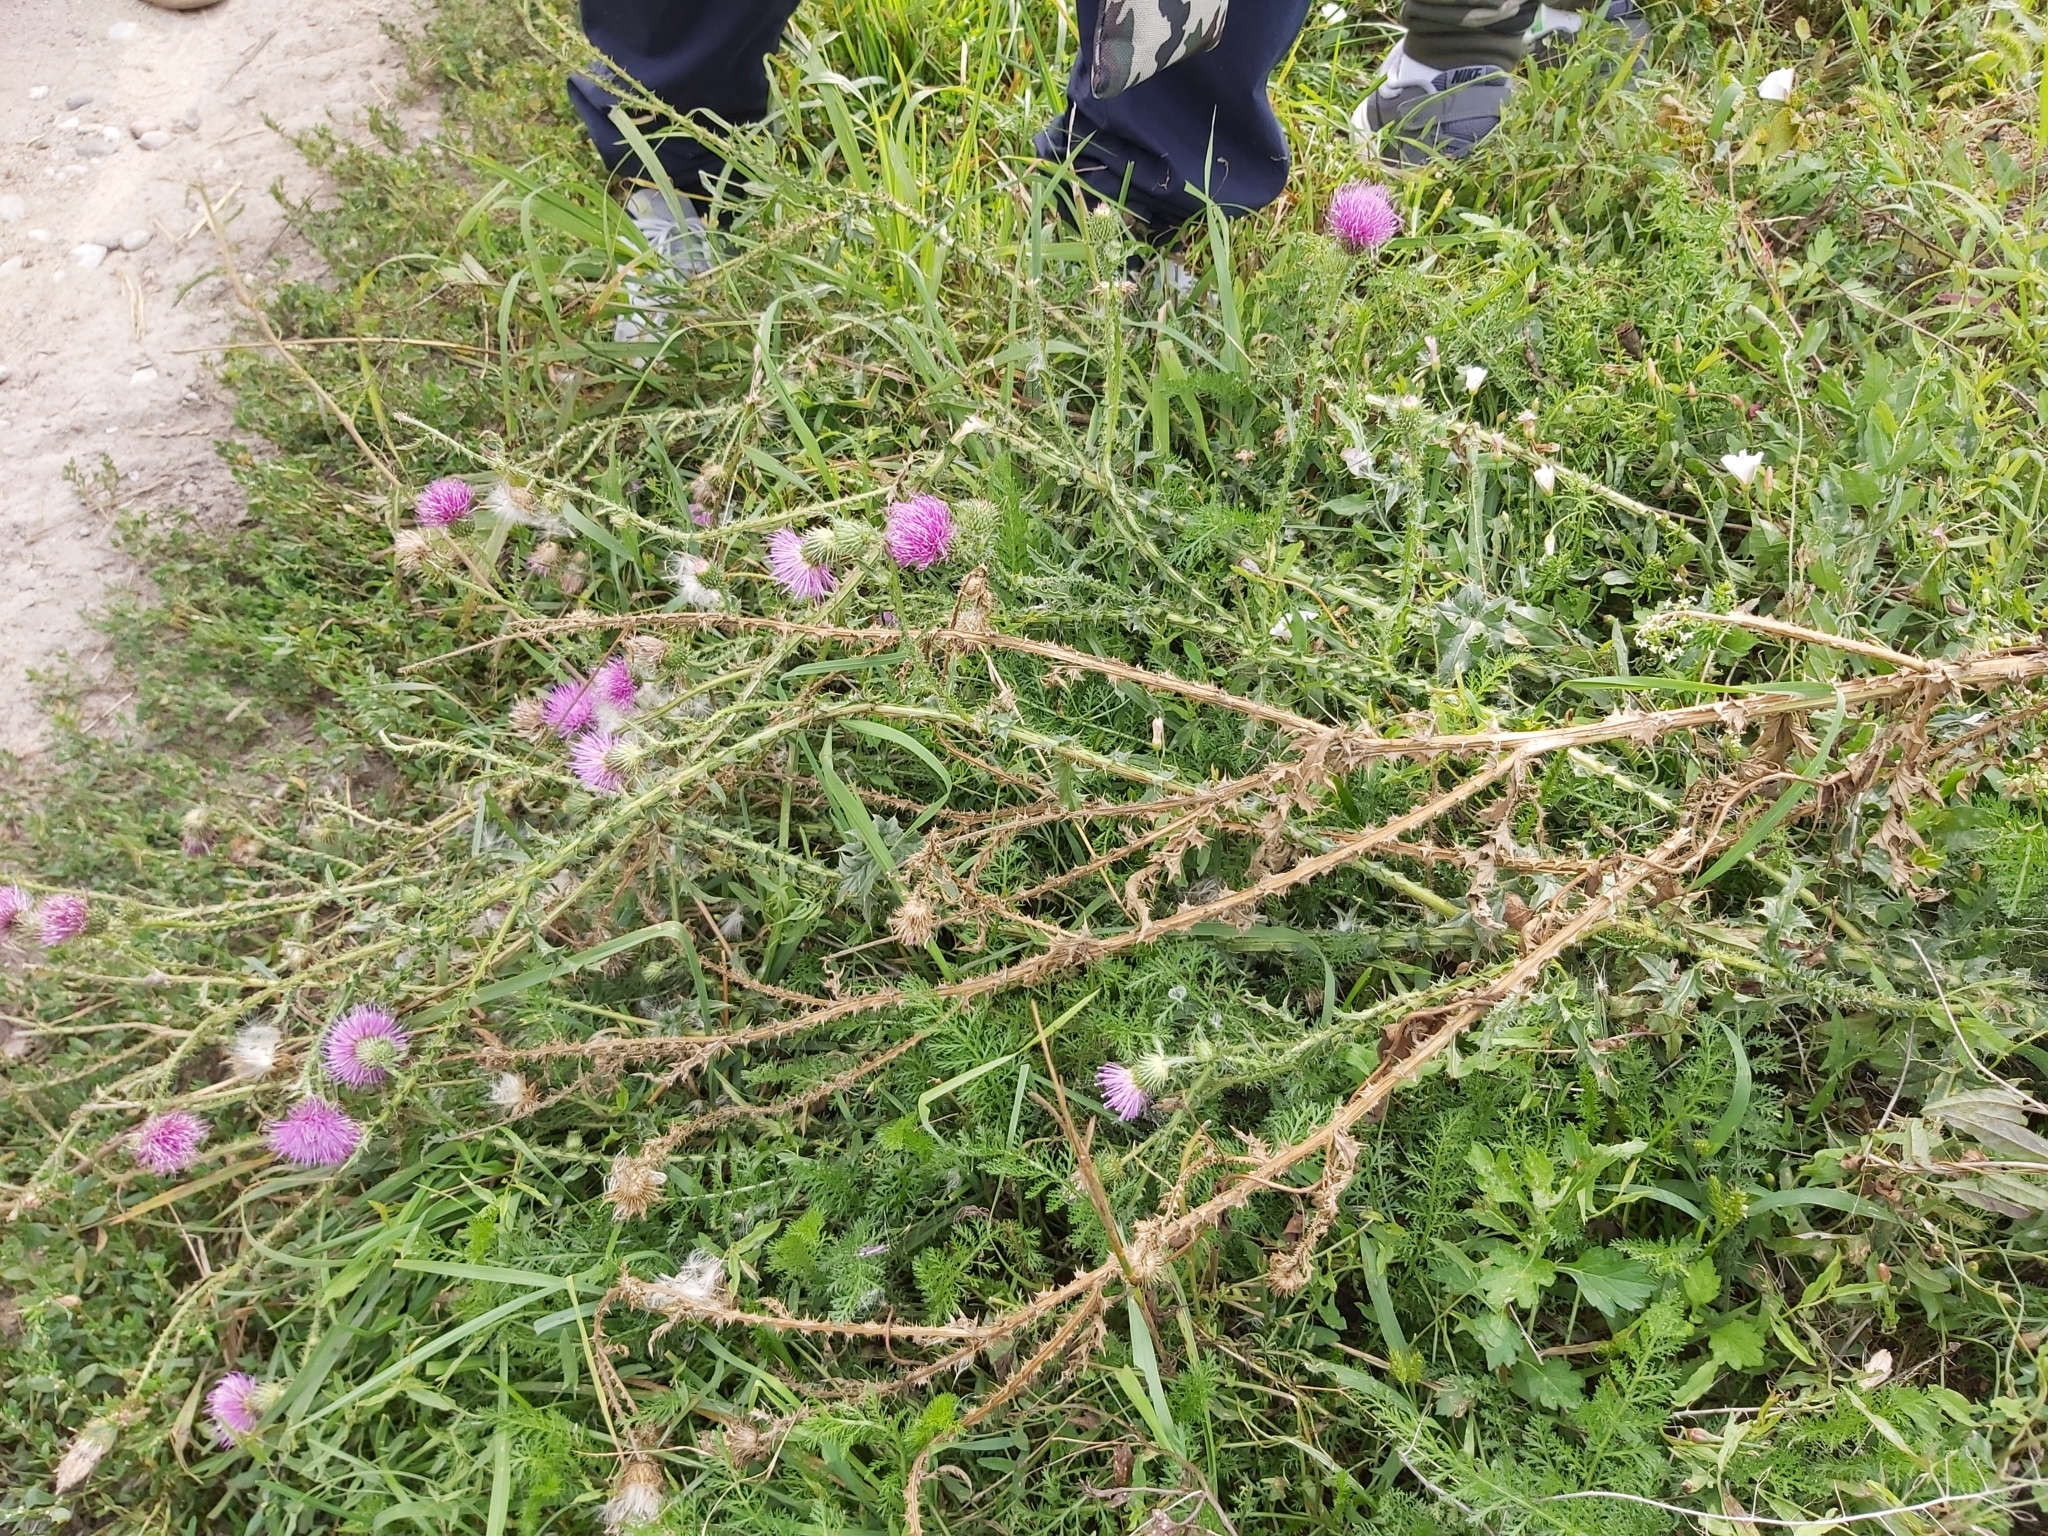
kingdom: Plantae
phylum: Tracheophyta
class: Magnoliopsida
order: Asterales
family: Asteraceae
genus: Carduus
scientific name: Carduus acanthoides
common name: Plumeless thistle
